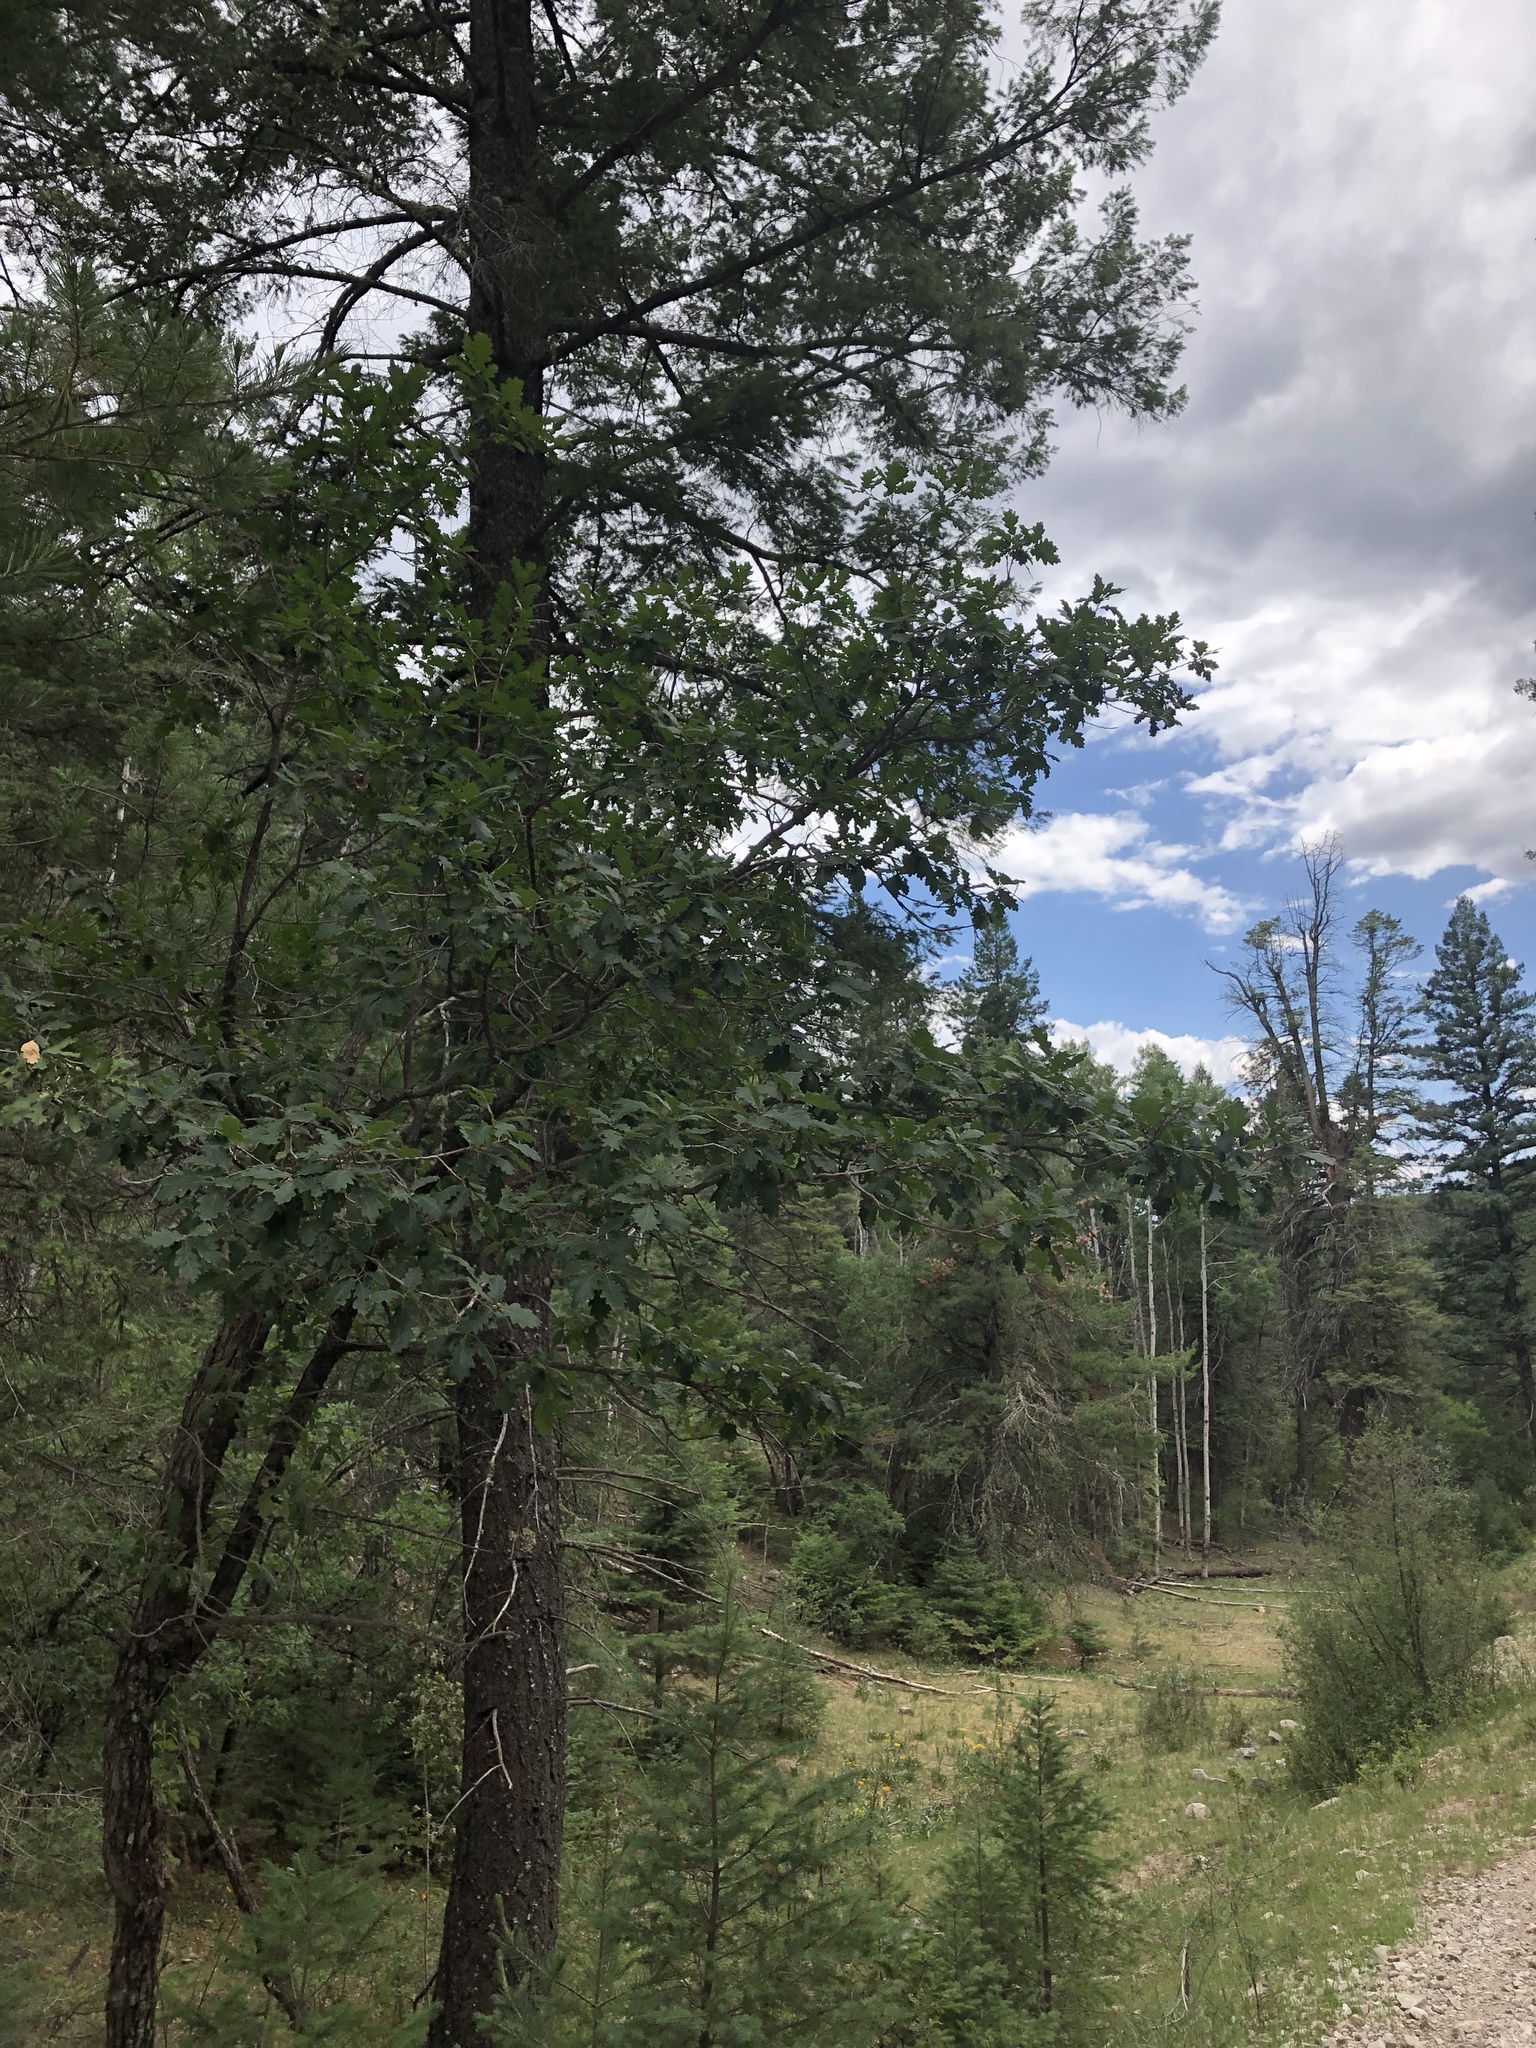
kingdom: Plantae
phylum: Tracheophyta
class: Magnoliopsida
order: Fagales
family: Fagaceae
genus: Quercus
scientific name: Quercus gambelii
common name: Gambel oak
